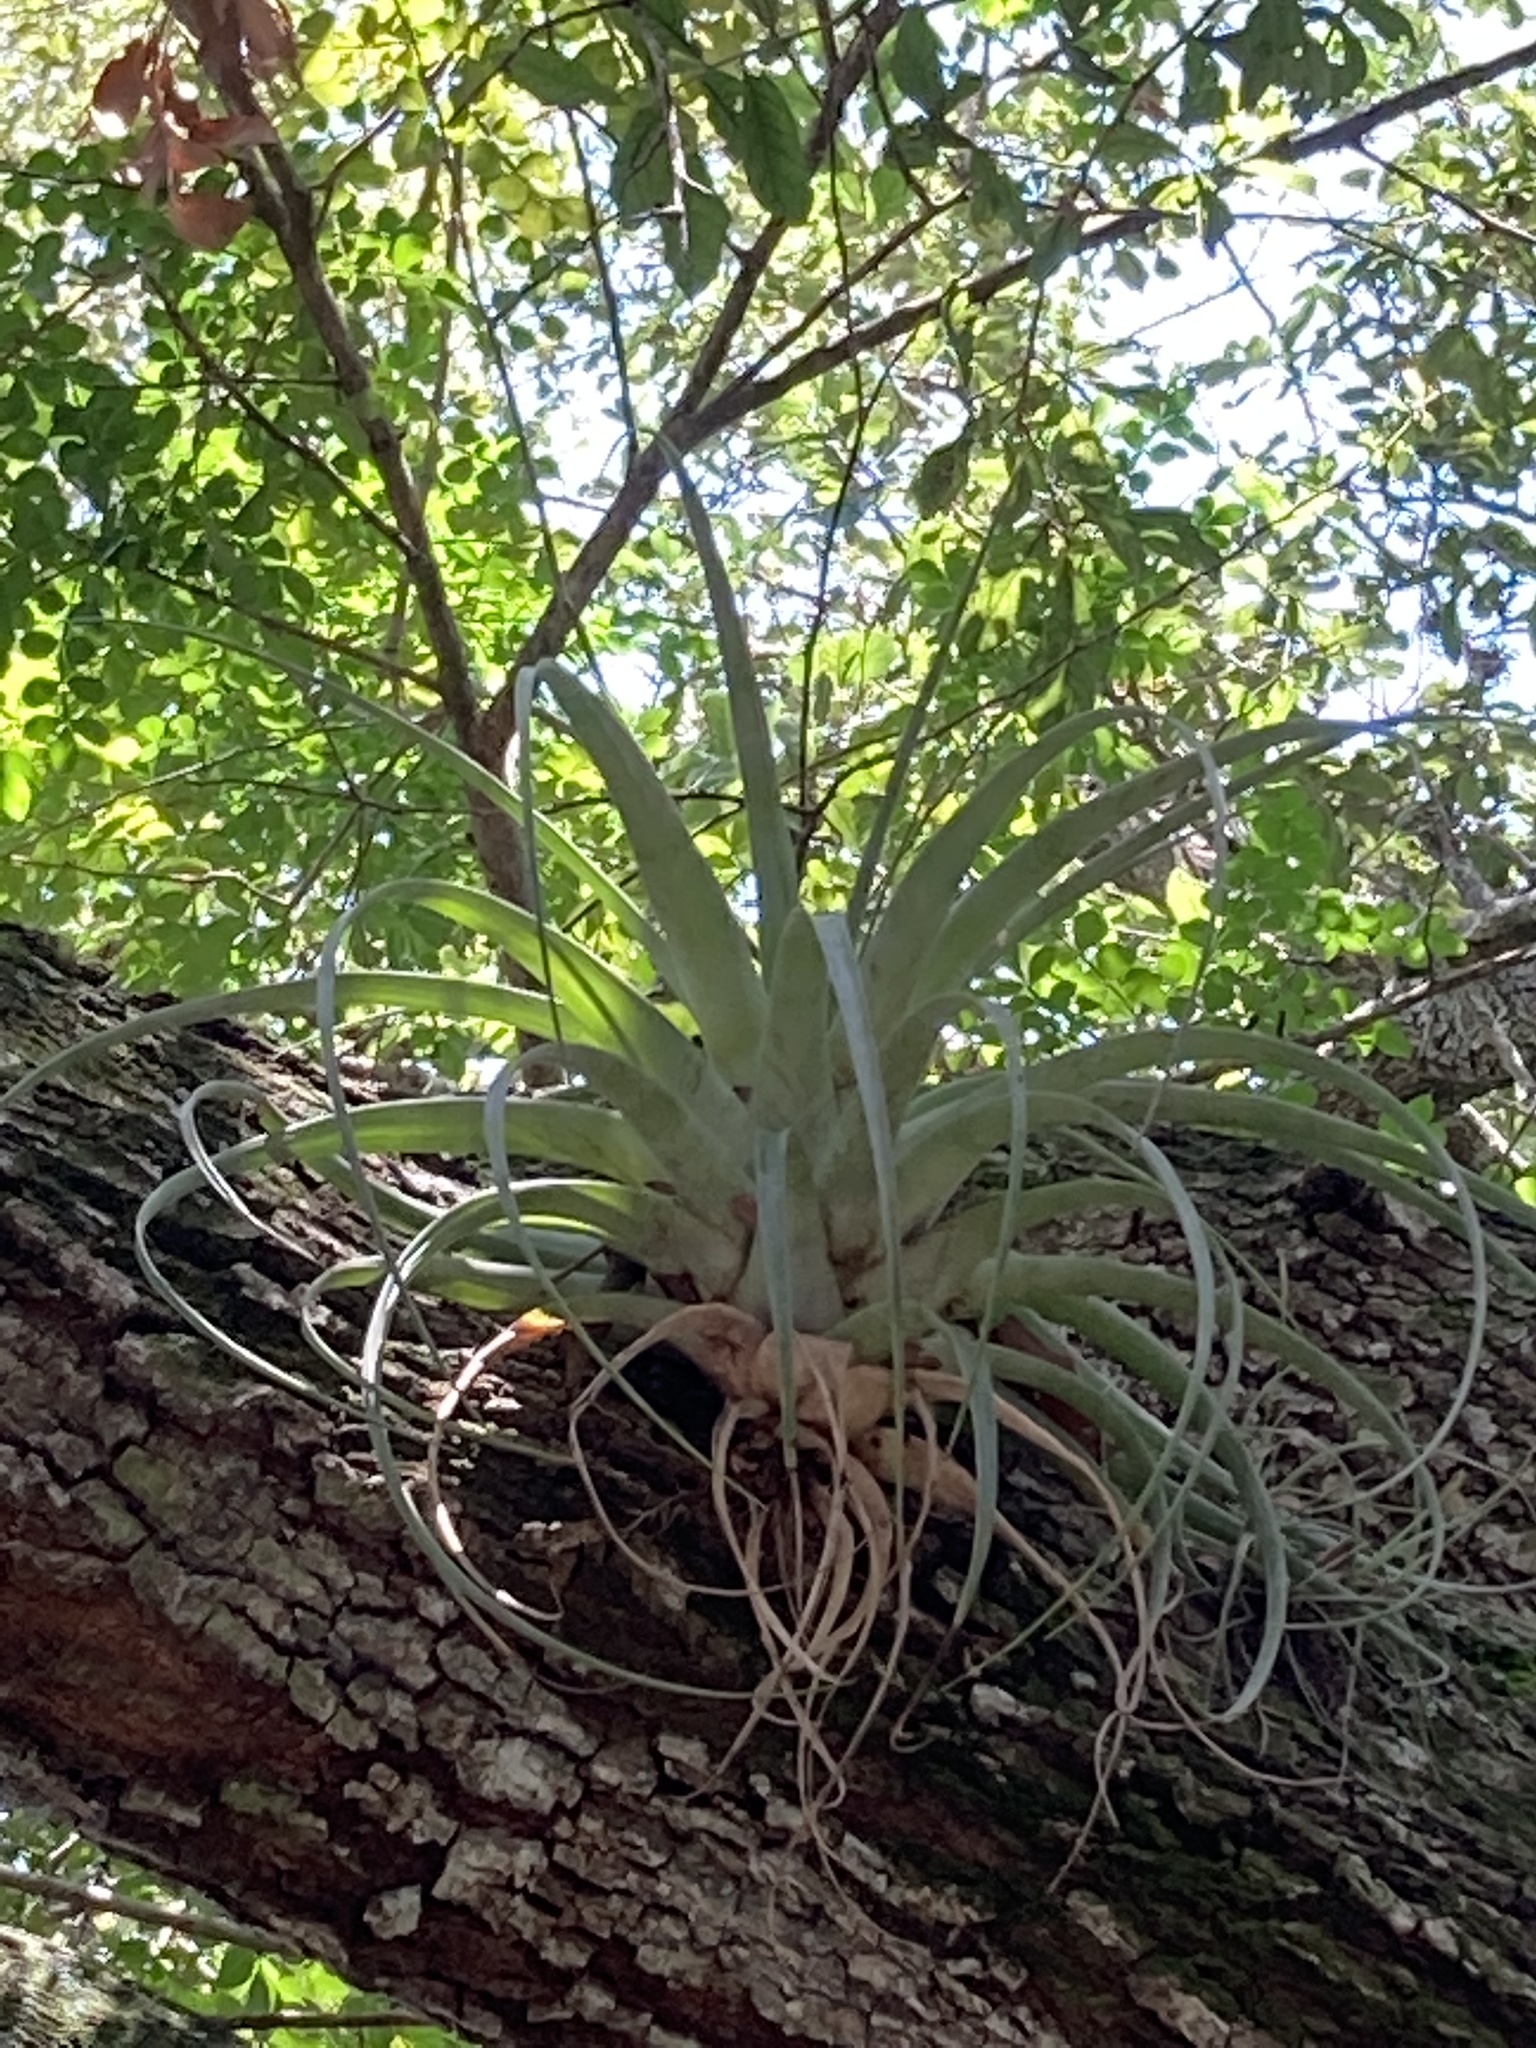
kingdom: Plantae
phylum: Tracheophyta
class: Liliopsida
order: Poales
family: Bromeliaceae
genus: Tillandsia
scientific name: Tillandsia utriculata
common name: Wild pine
